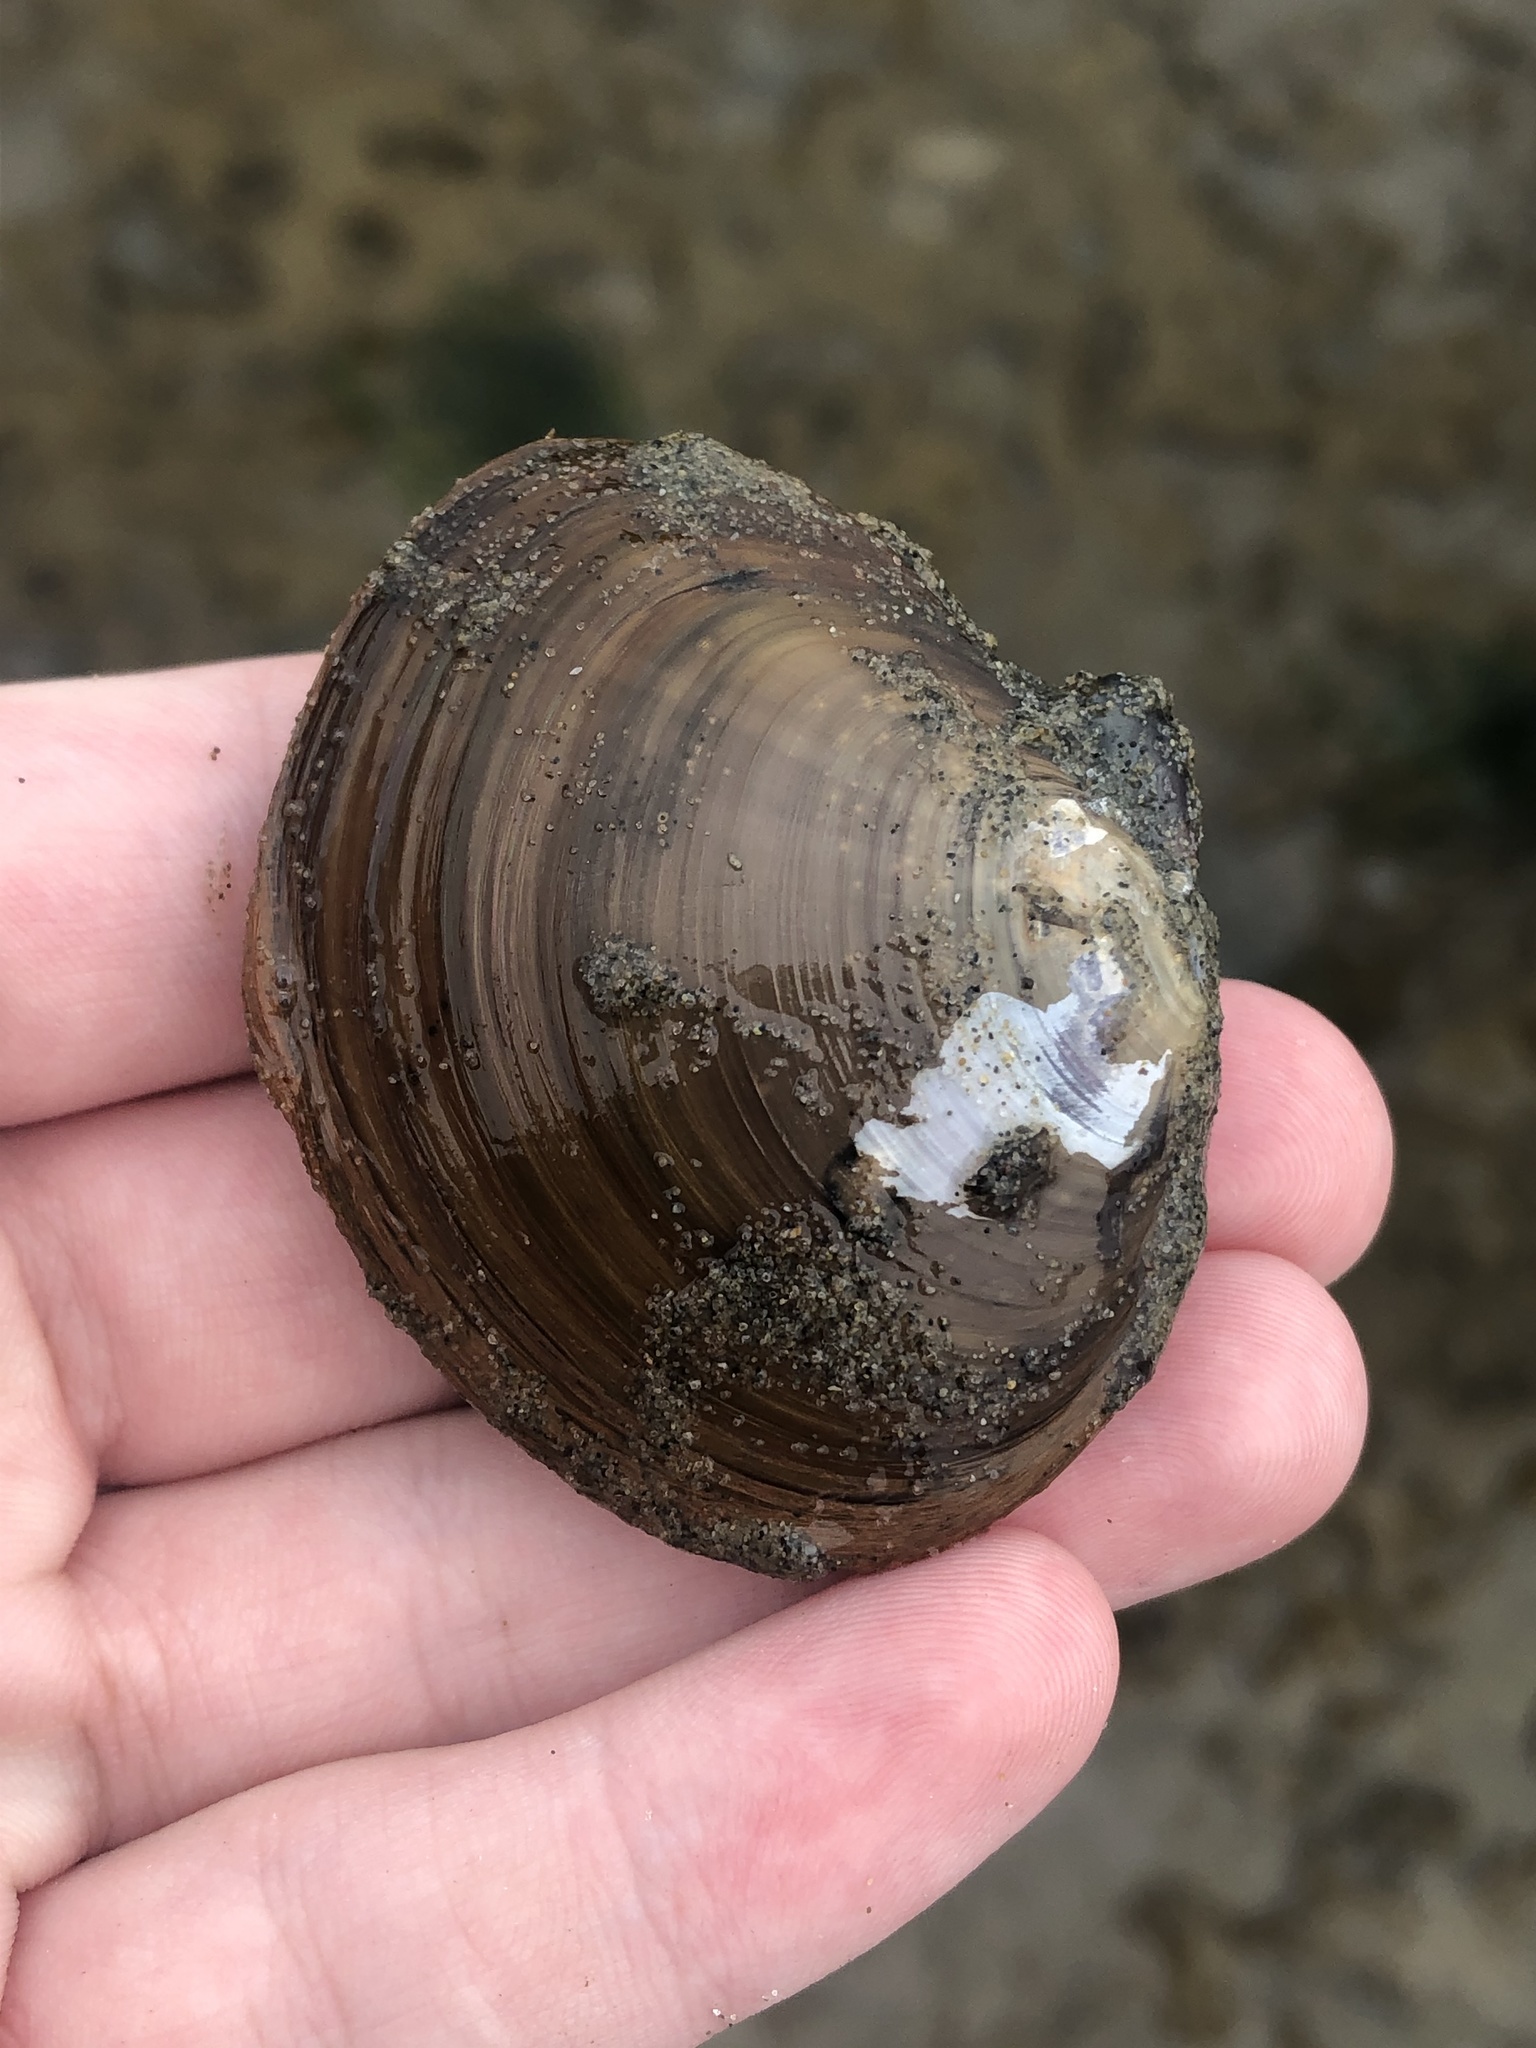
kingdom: Animalia
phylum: Mollusca
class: Bivalvia
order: Cardiida
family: Psammobiidae
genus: Nuttallia
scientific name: Nuttallia obscurata
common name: Purple mahogany-clam
